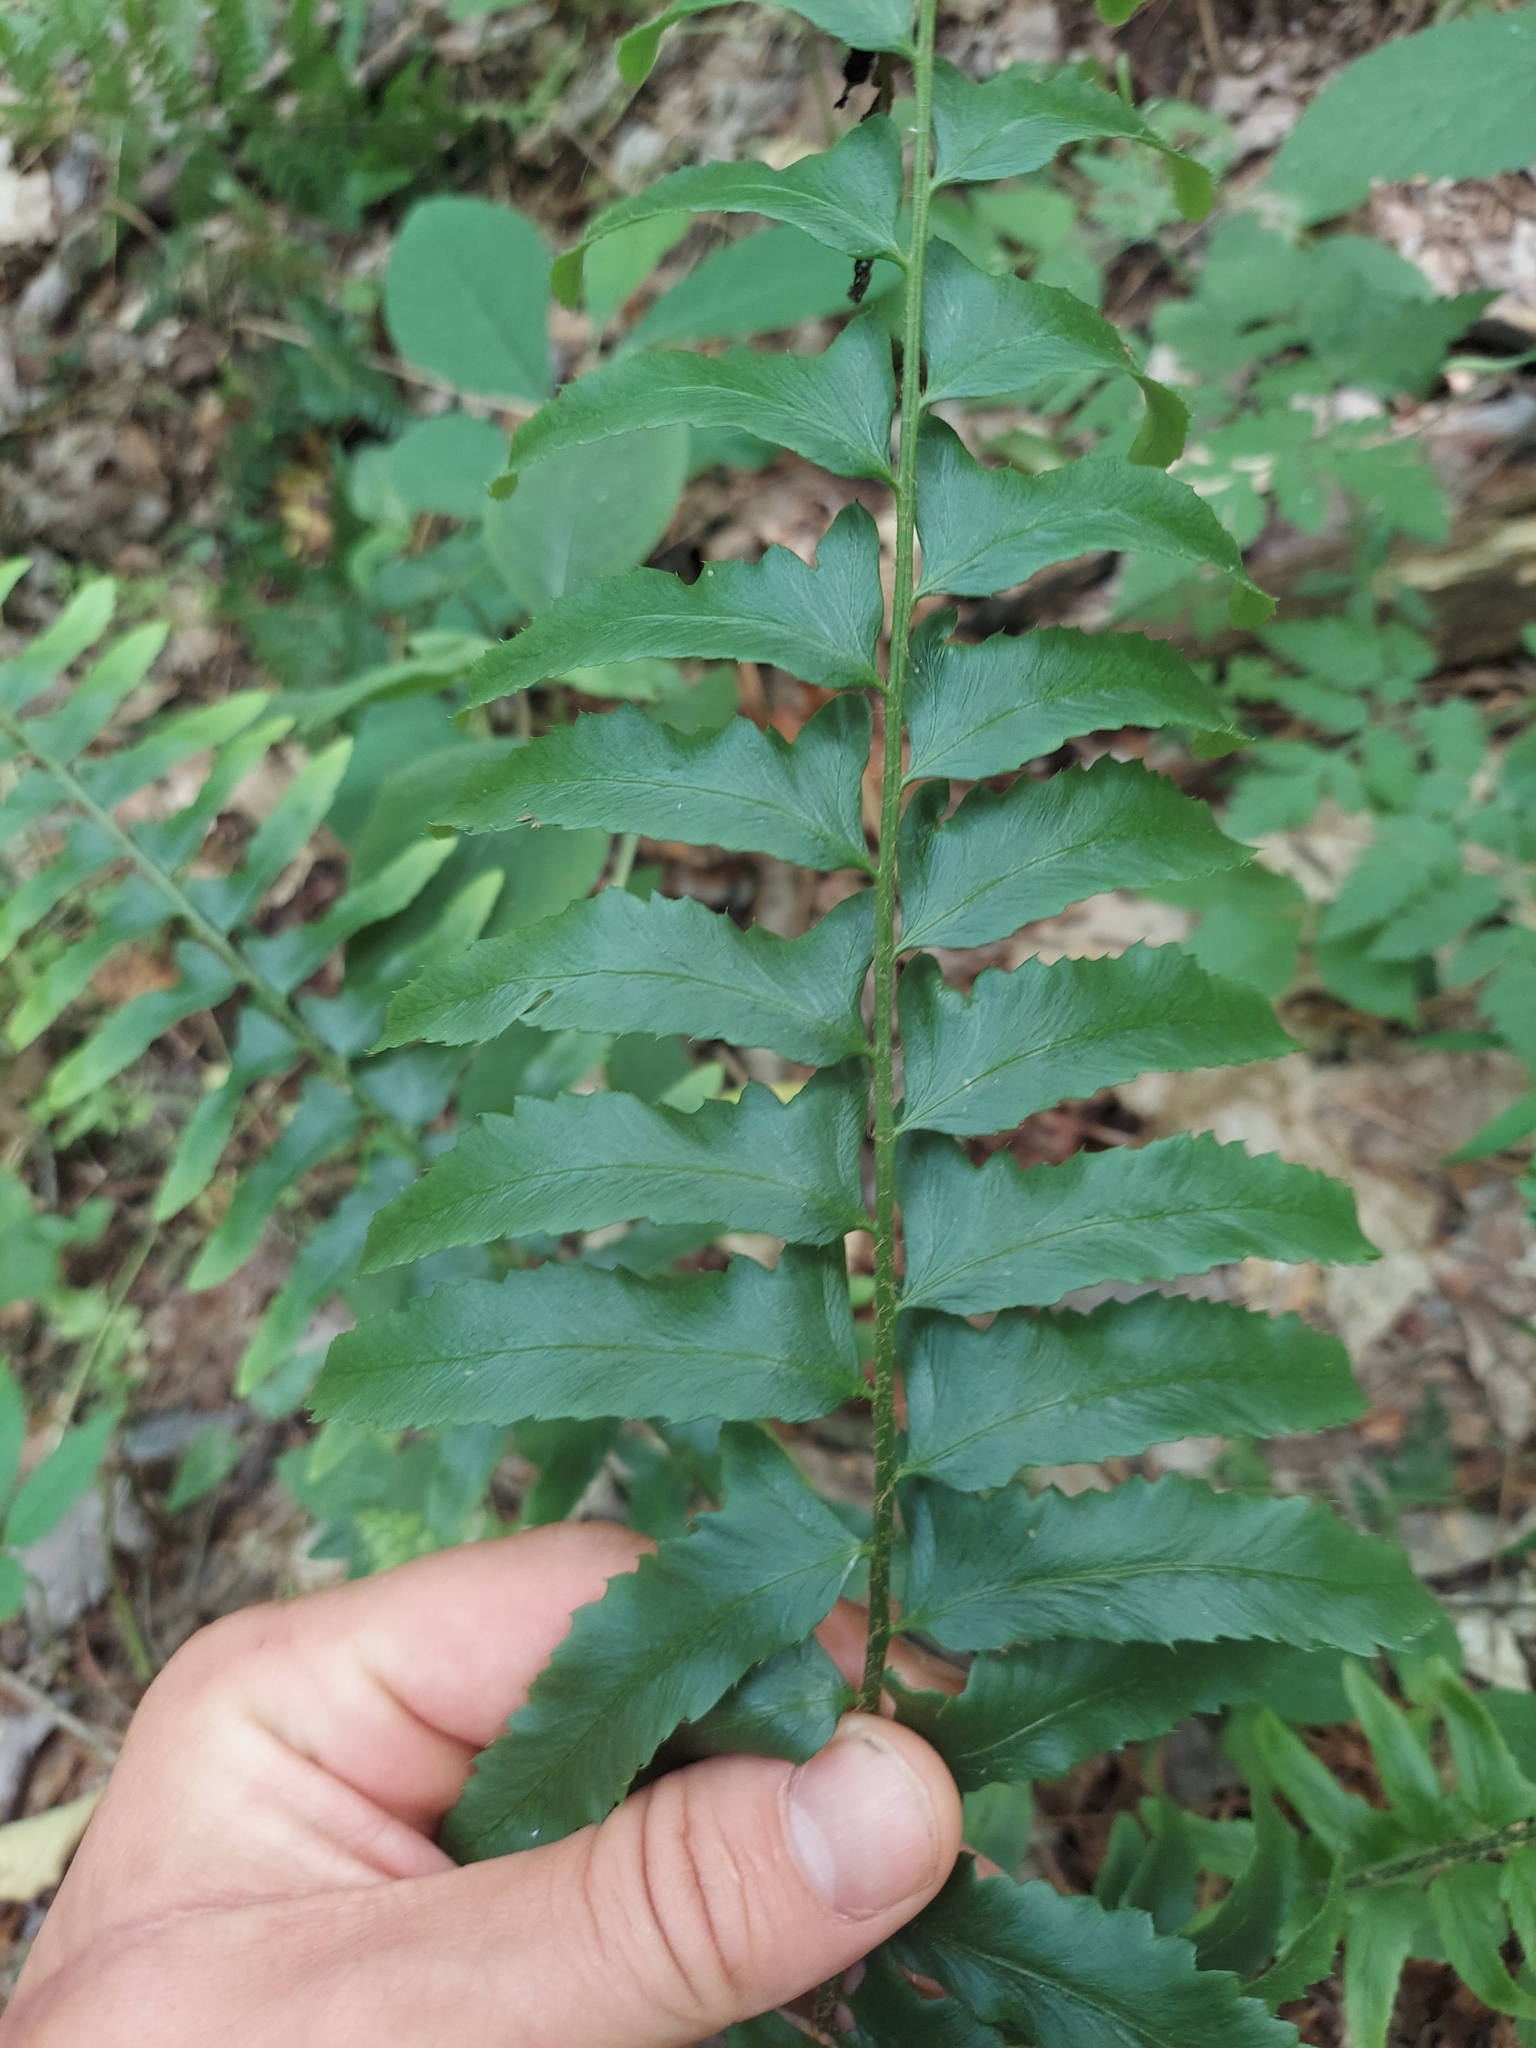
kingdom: Plantae
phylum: Tracheophyta
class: Polypodiopsida
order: Polypodiales
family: Dryopteridaceae
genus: Polystichum
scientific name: Polystichum acrostichoides
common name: Christmas fern
